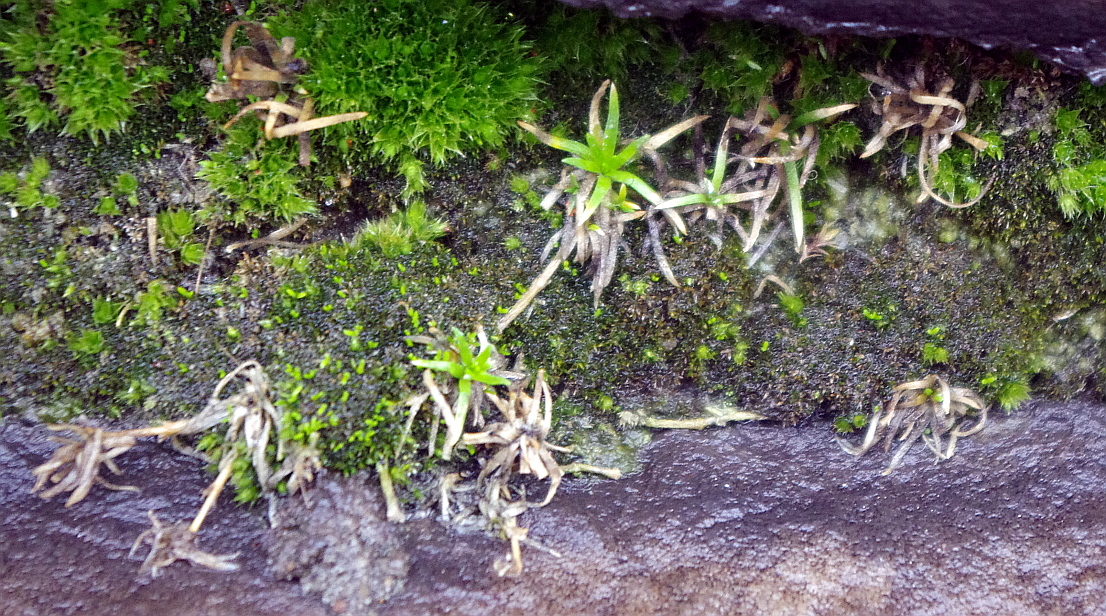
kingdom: Plantae
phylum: Tracheophyta
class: Magnoliopsida
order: Caryophyllales
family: Caryophyllaceae
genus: Sagina
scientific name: Sagina procumbens
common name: Procumbent pearlwort
